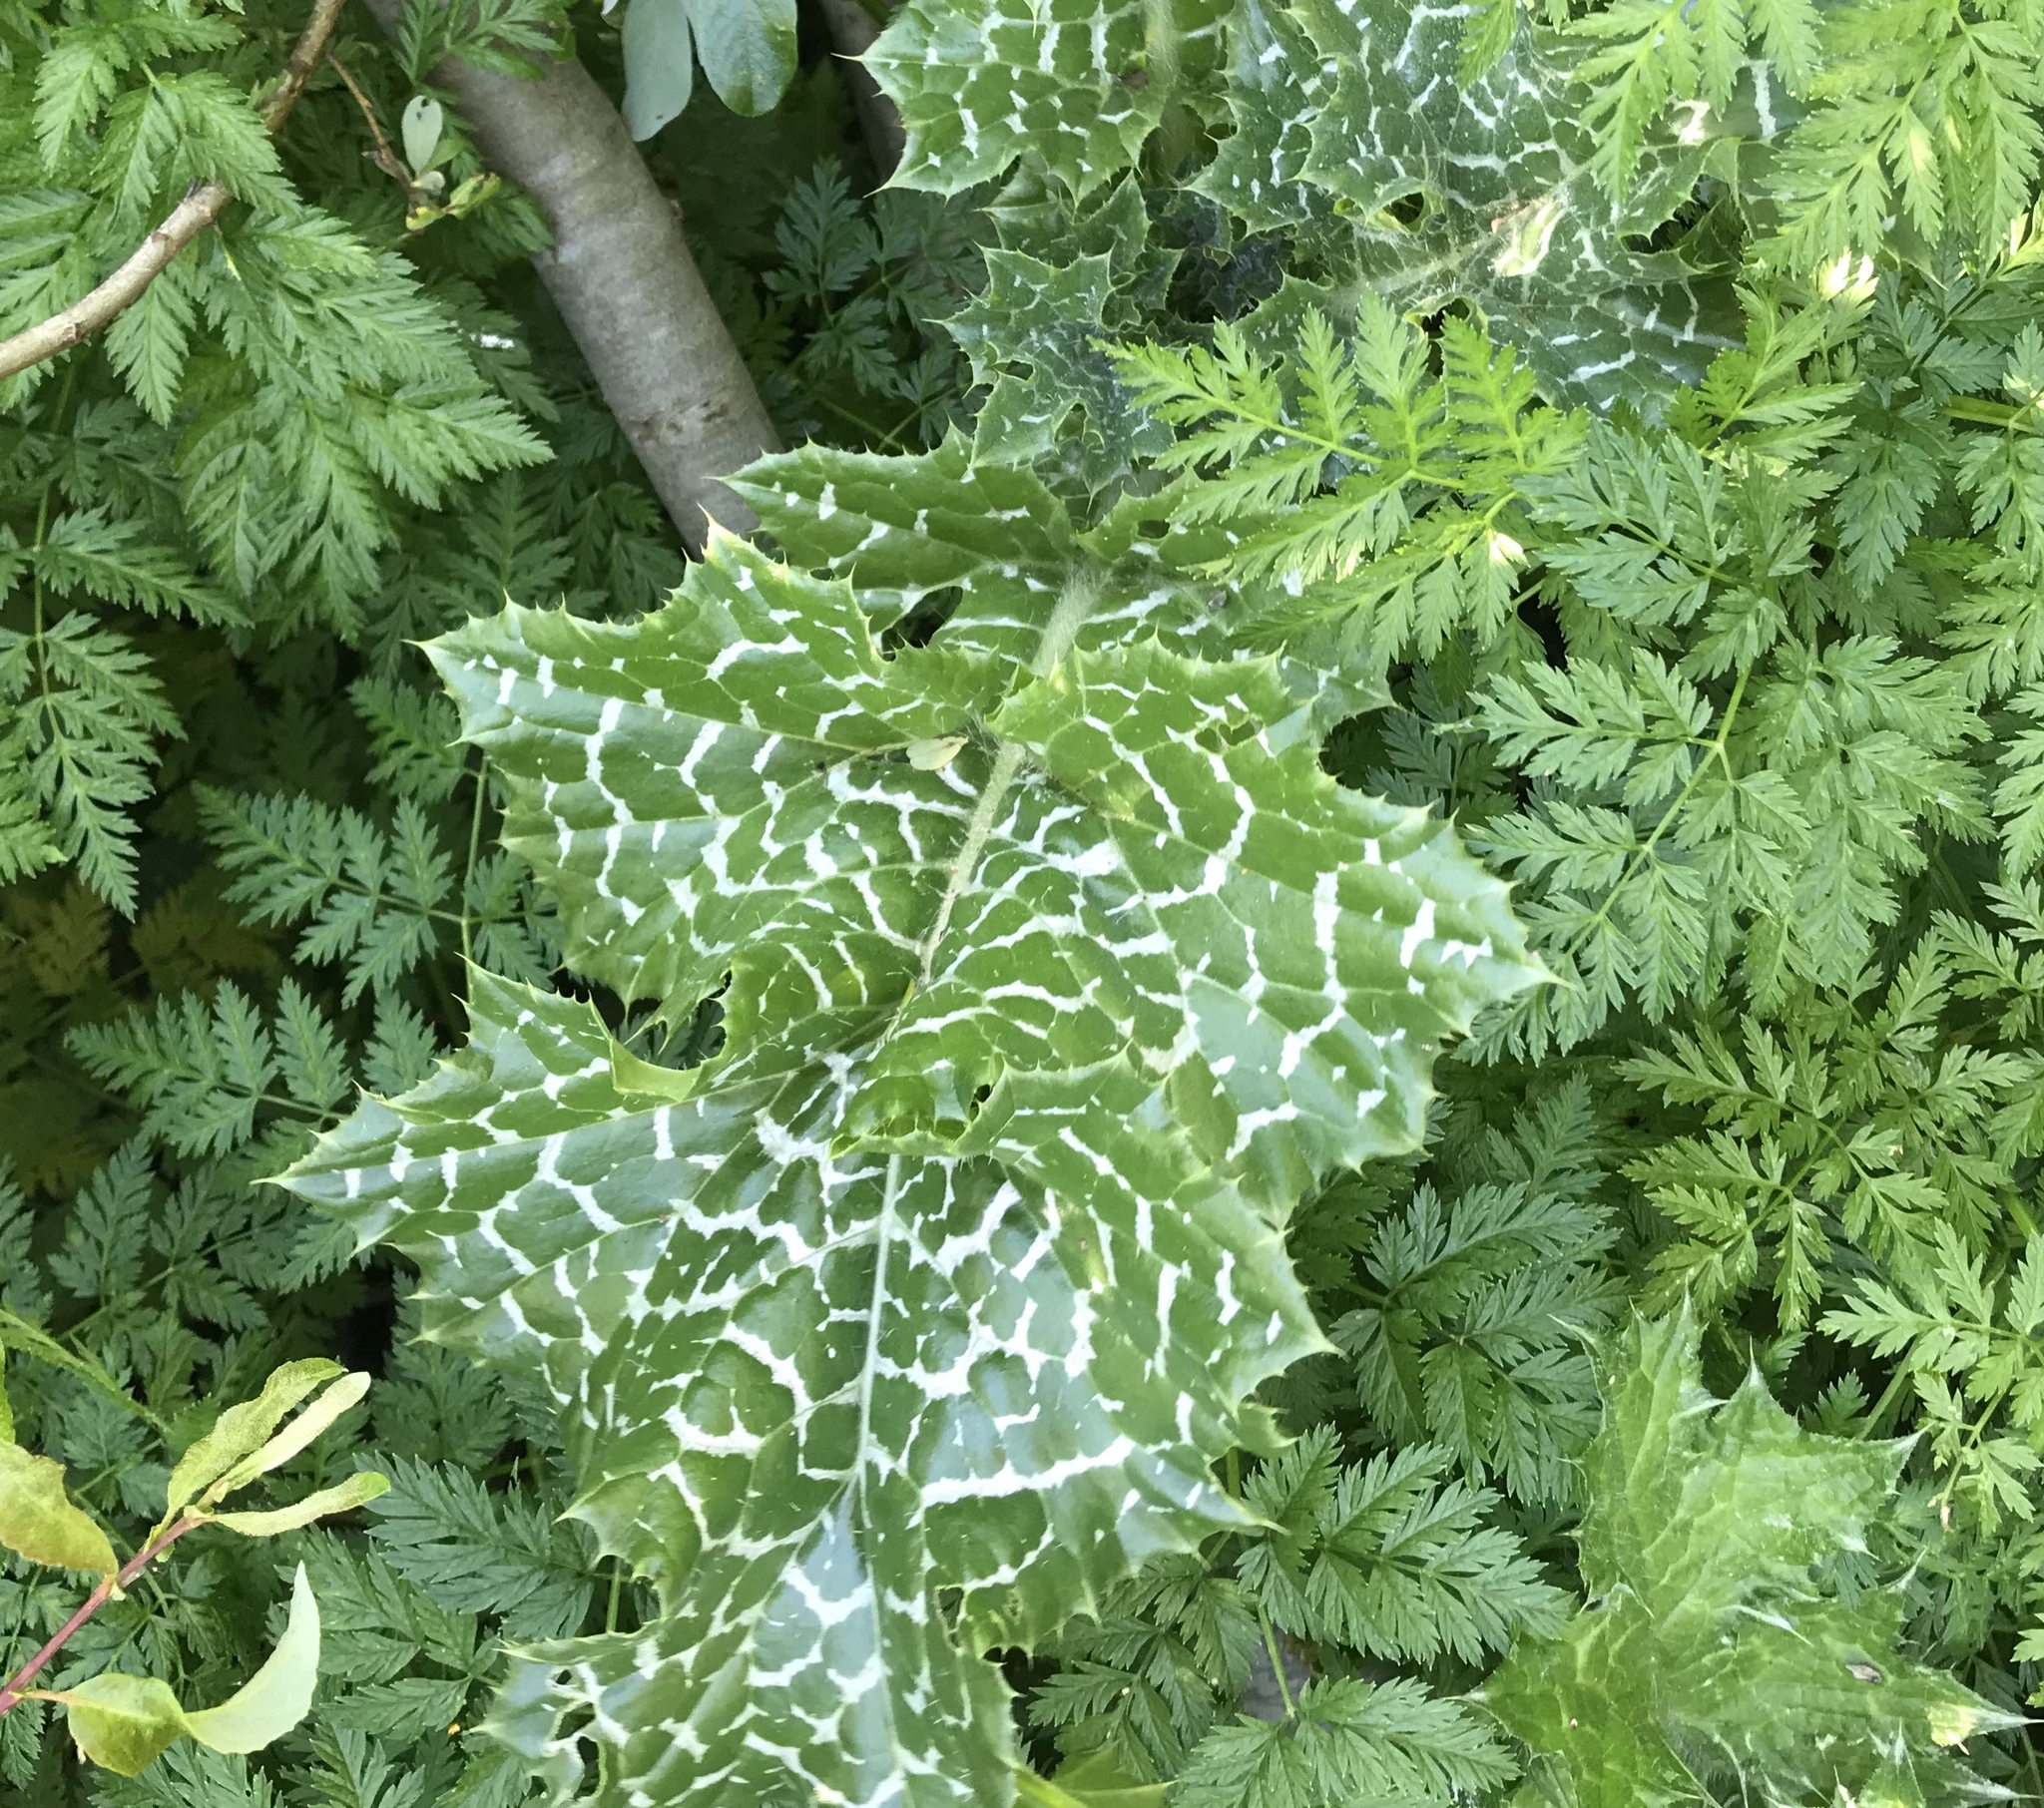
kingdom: Plantae
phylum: Tracheophyta
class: Magnoliopsida
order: Asterales
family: Asteraceae
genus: Silybum
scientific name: Silybum marianum
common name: Milk thistle
